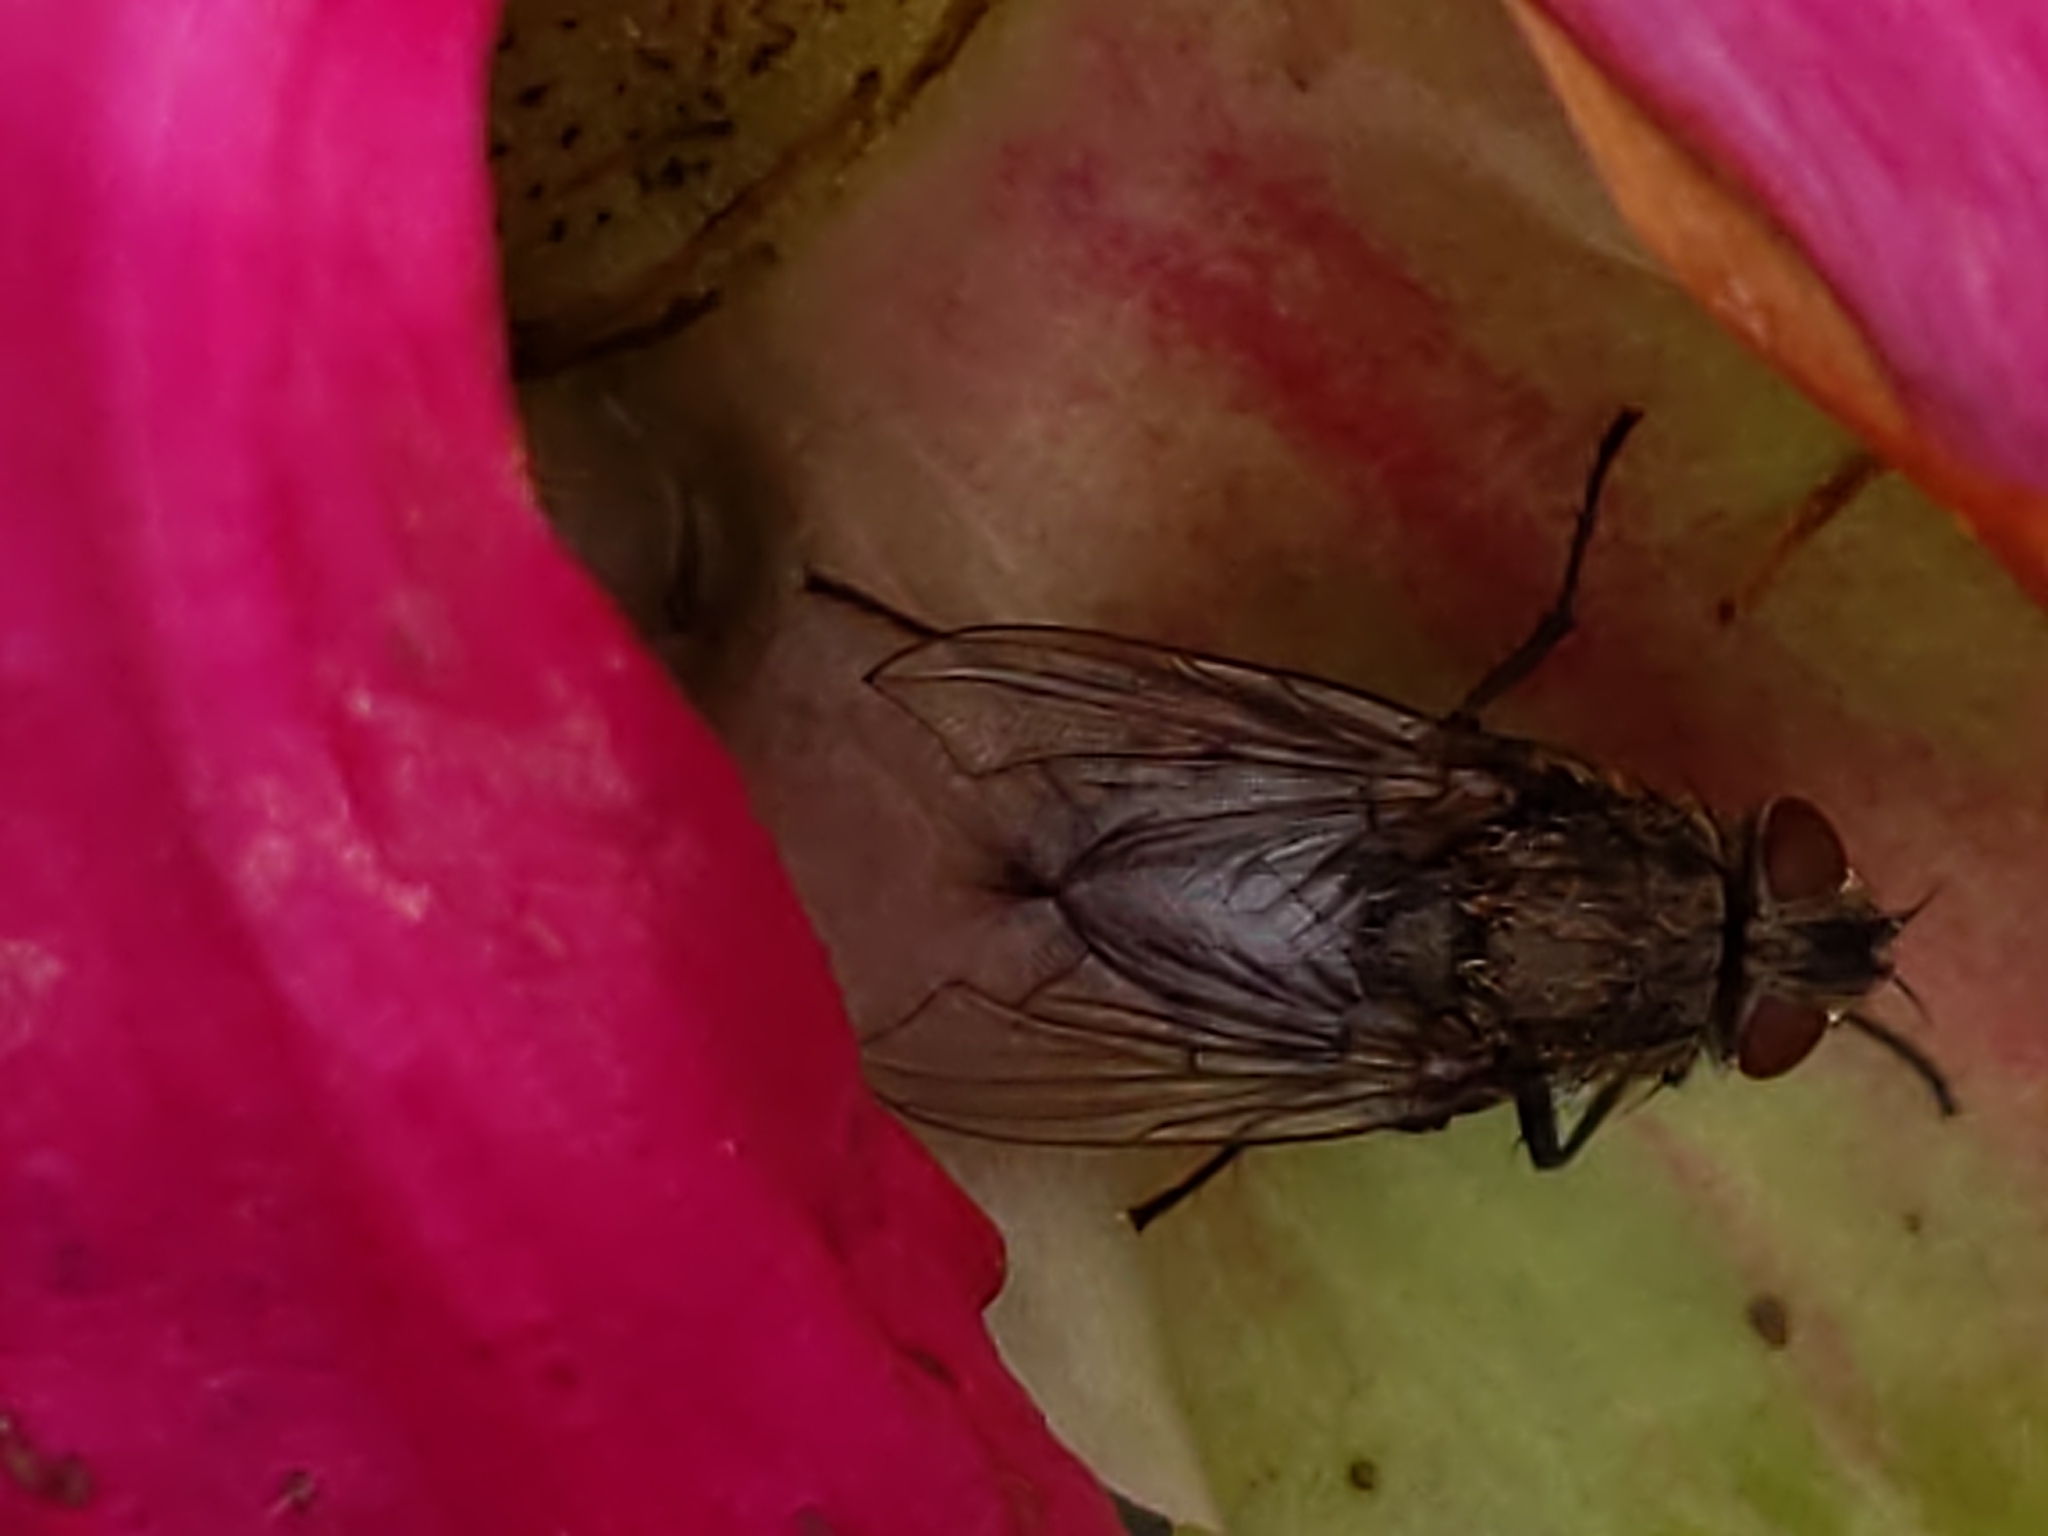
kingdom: Animalia
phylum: Arthropoda
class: Insecta
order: Diptera
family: Polleniidae
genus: Pollenia
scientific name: Pollenia
